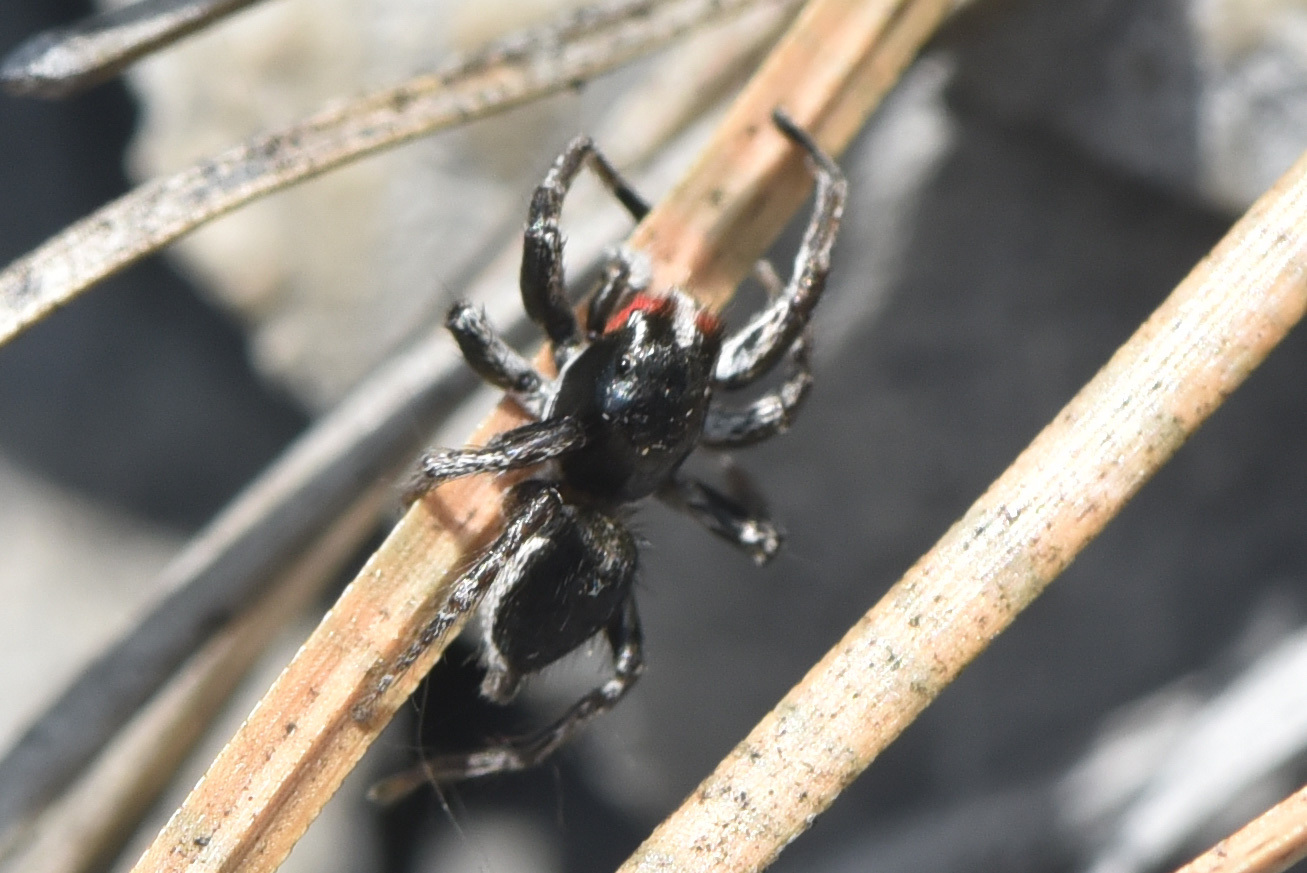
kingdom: Animalia
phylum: Arthropoda
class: Arachnida
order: Araneae
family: Salticidae
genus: Habronattus
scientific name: Habronattus sansoni
